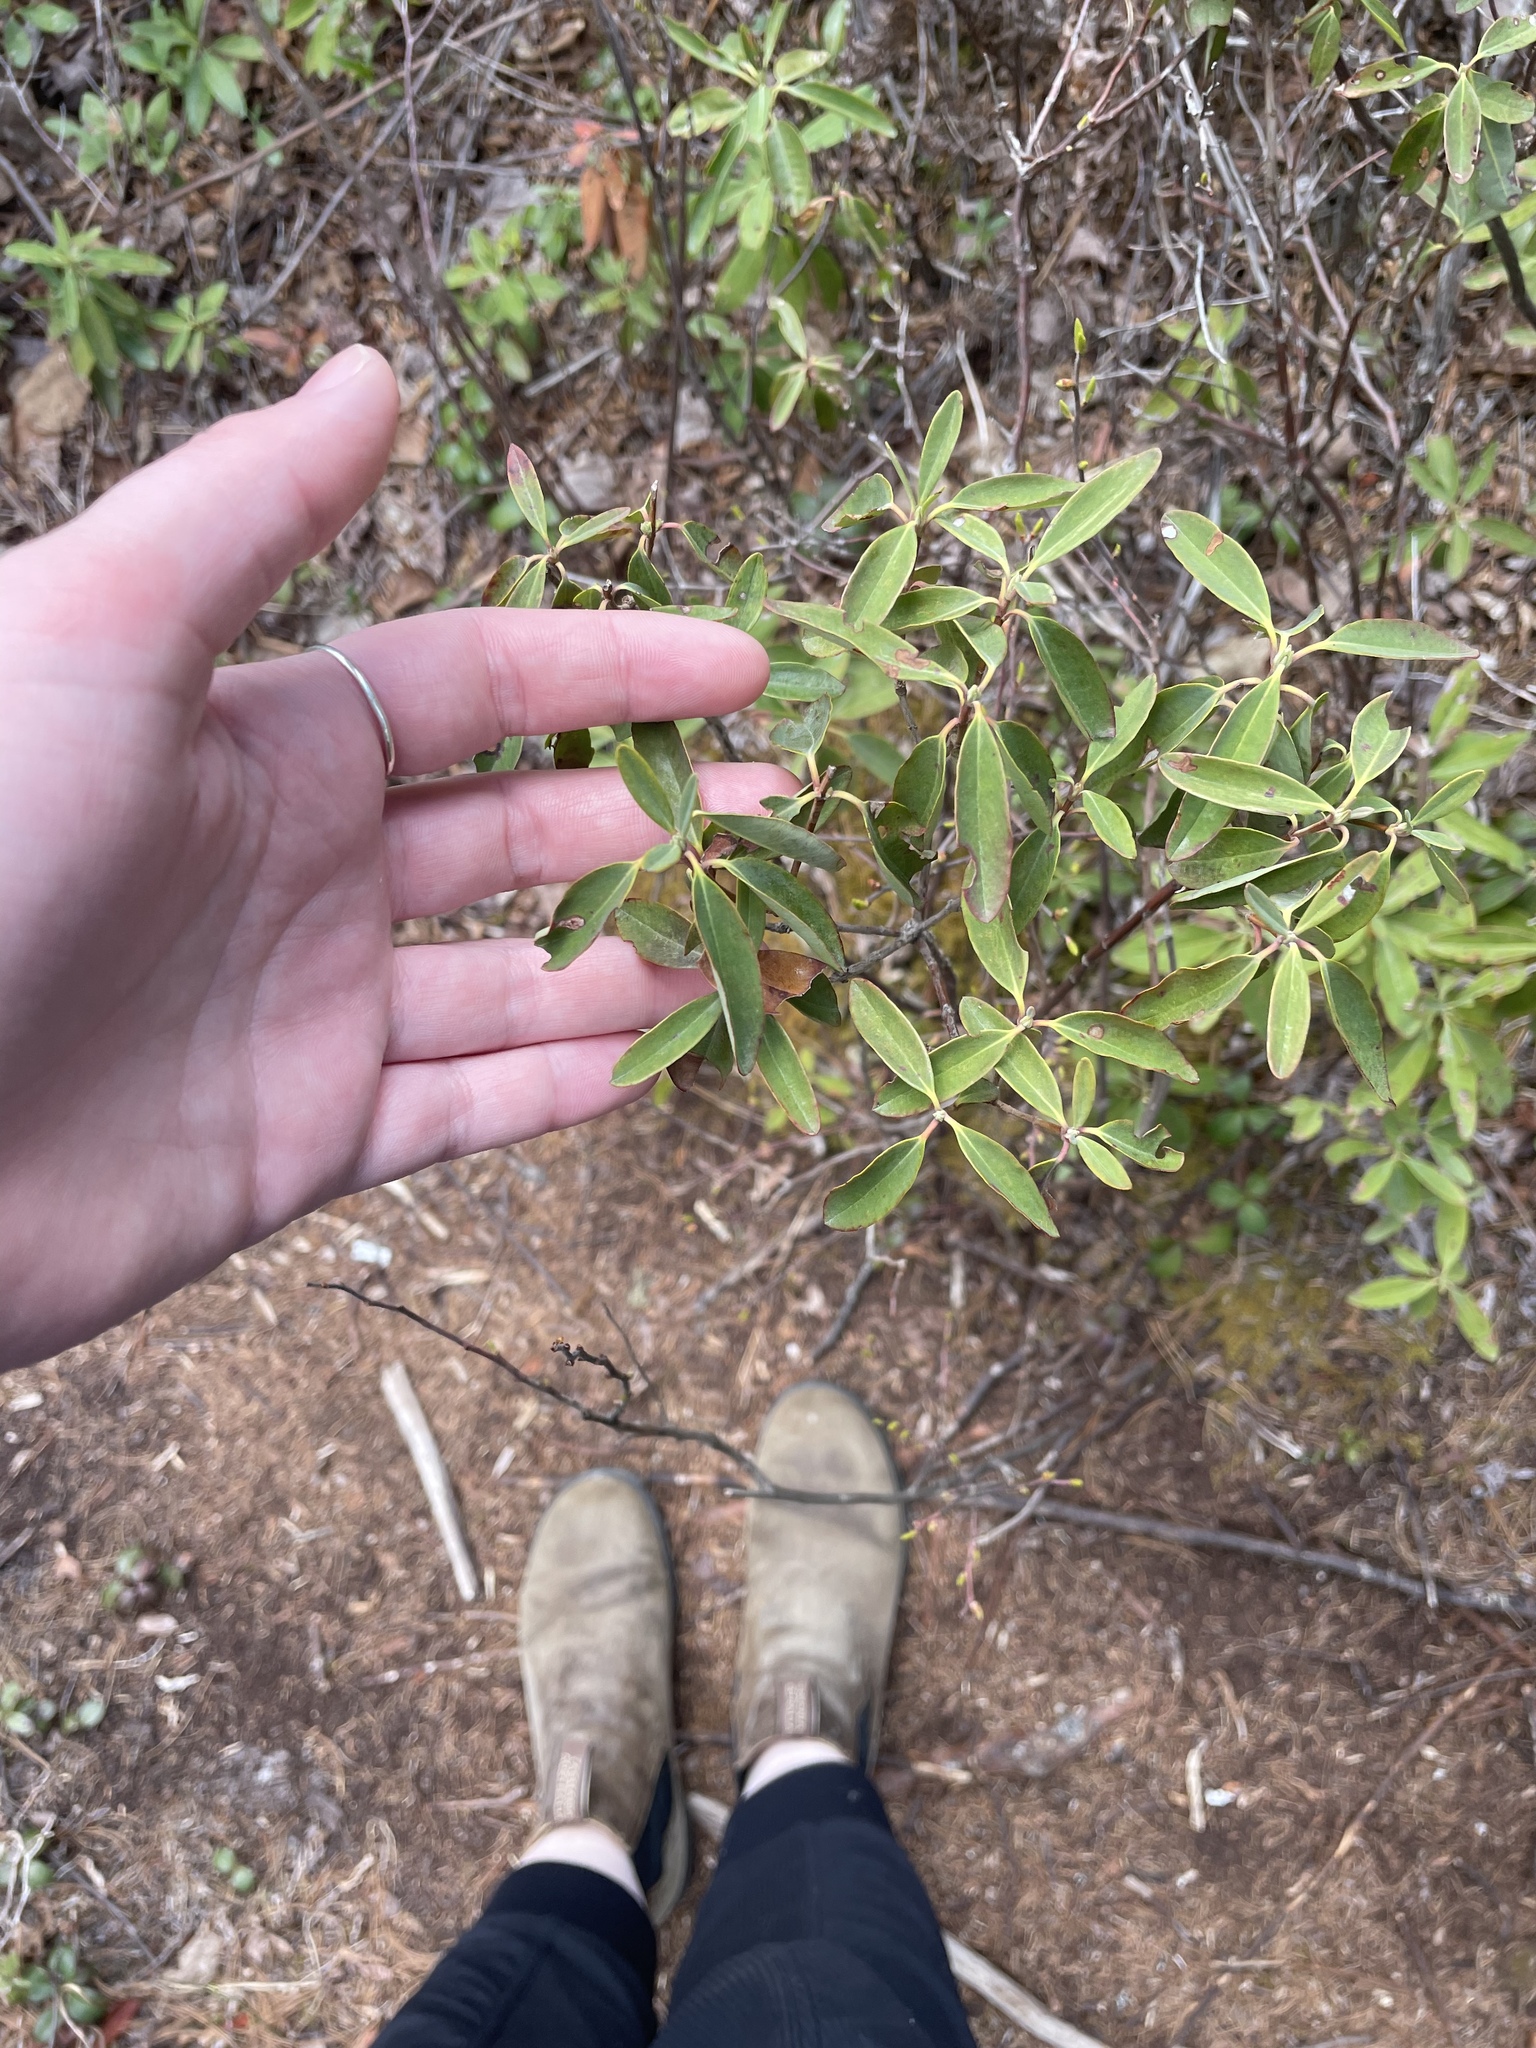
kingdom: Plantae
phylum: Tracheophyta
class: Magnoliopsida
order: Ericales
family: Ericaceae
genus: Kalmia
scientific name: Kalmia angustifolia
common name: Sheep-laurel
